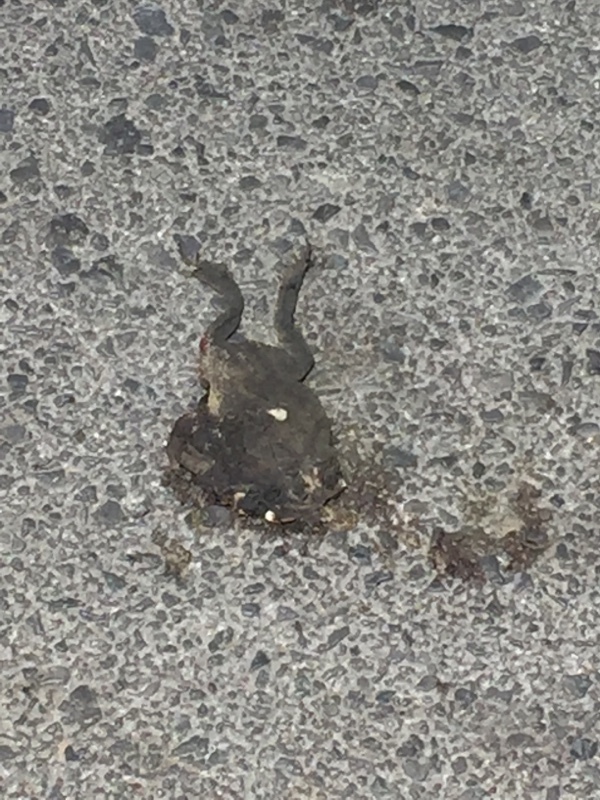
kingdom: Animalia
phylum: Chordata
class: Amphibia
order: Anura
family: Bufonidae
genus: Duttaphrynus
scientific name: Duttaphrynus melanostictus
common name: Common sunda toad
